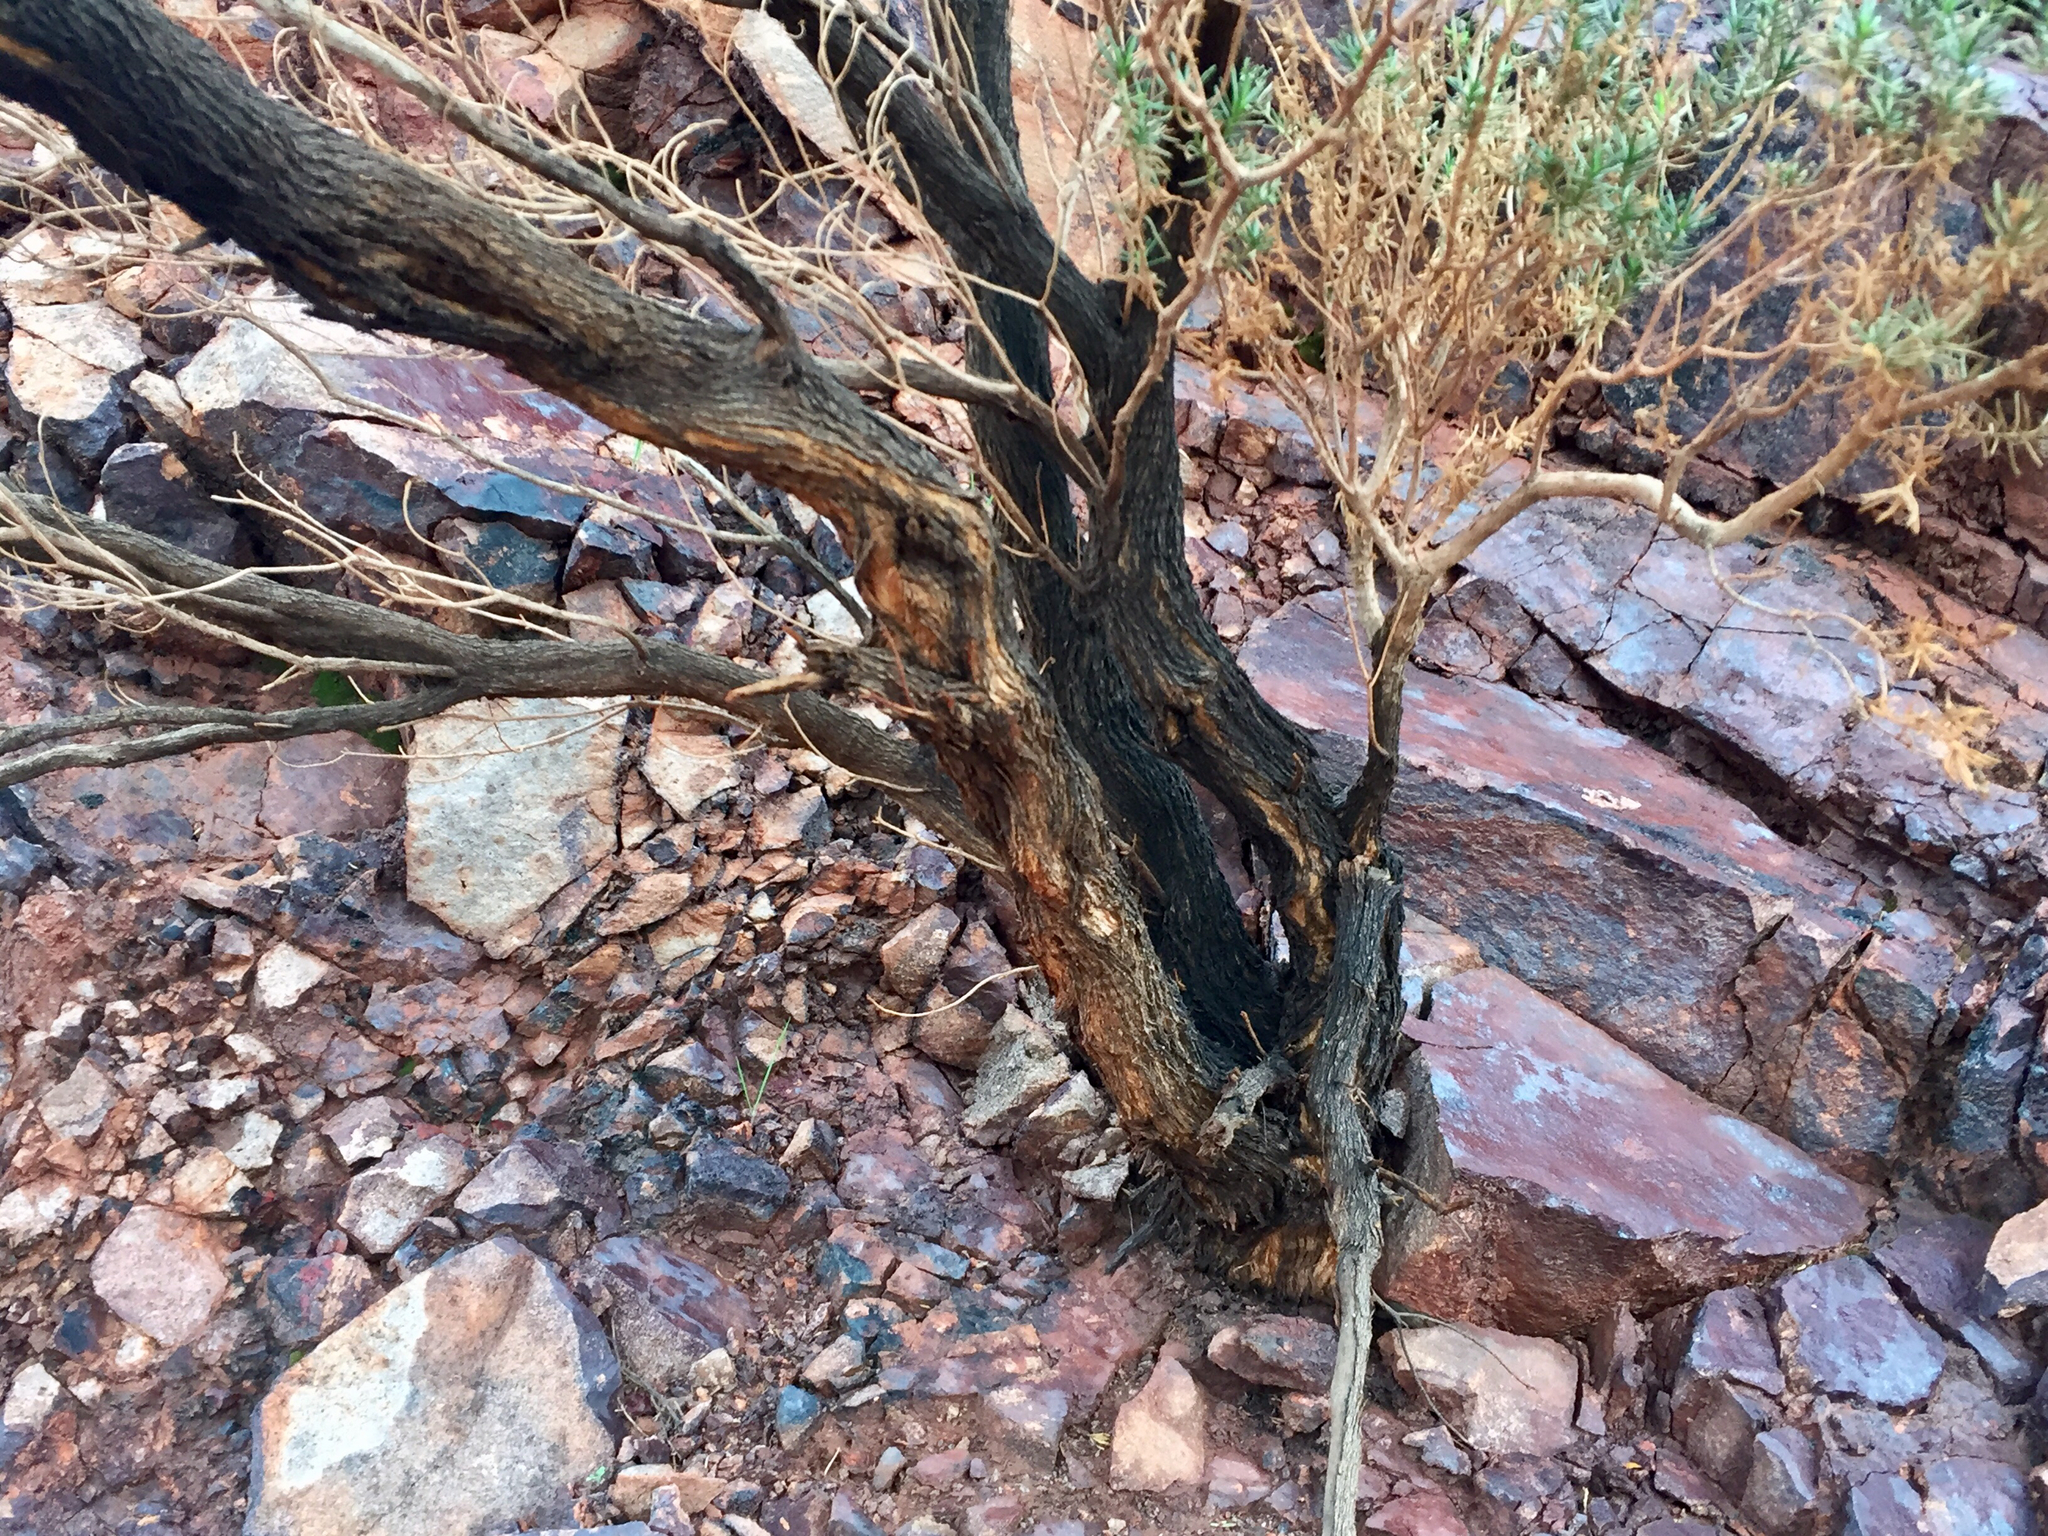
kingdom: Plantae
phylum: Tracheophyta
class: Magnoliopsida
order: Asterales
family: Asteraceae
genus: Peucephyllum
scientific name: Peucephyllum schottii
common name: Pygmy-cedar
